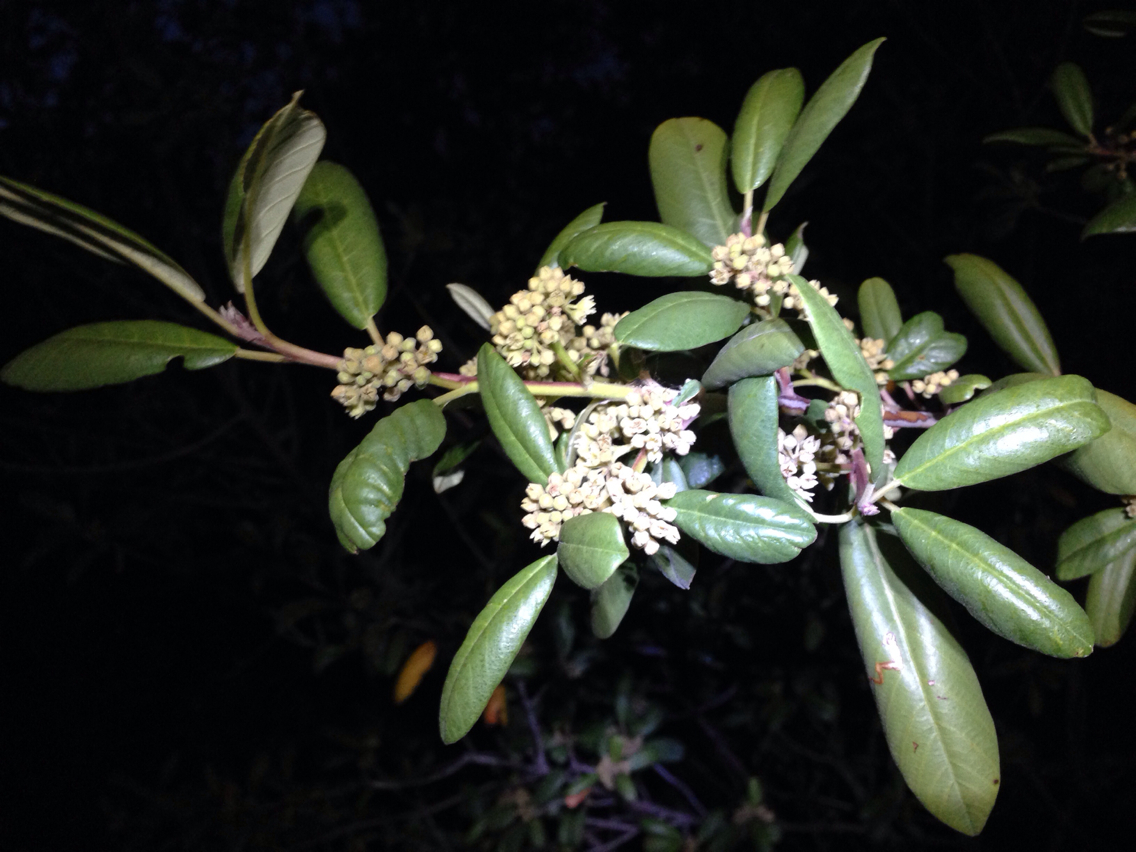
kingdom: Plantae
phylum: Tracheophyta
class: Magnoliopsida
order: Rosales
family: Rhamnaceae
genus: Frangula
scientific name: Frangula californica
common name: California buckthorn
